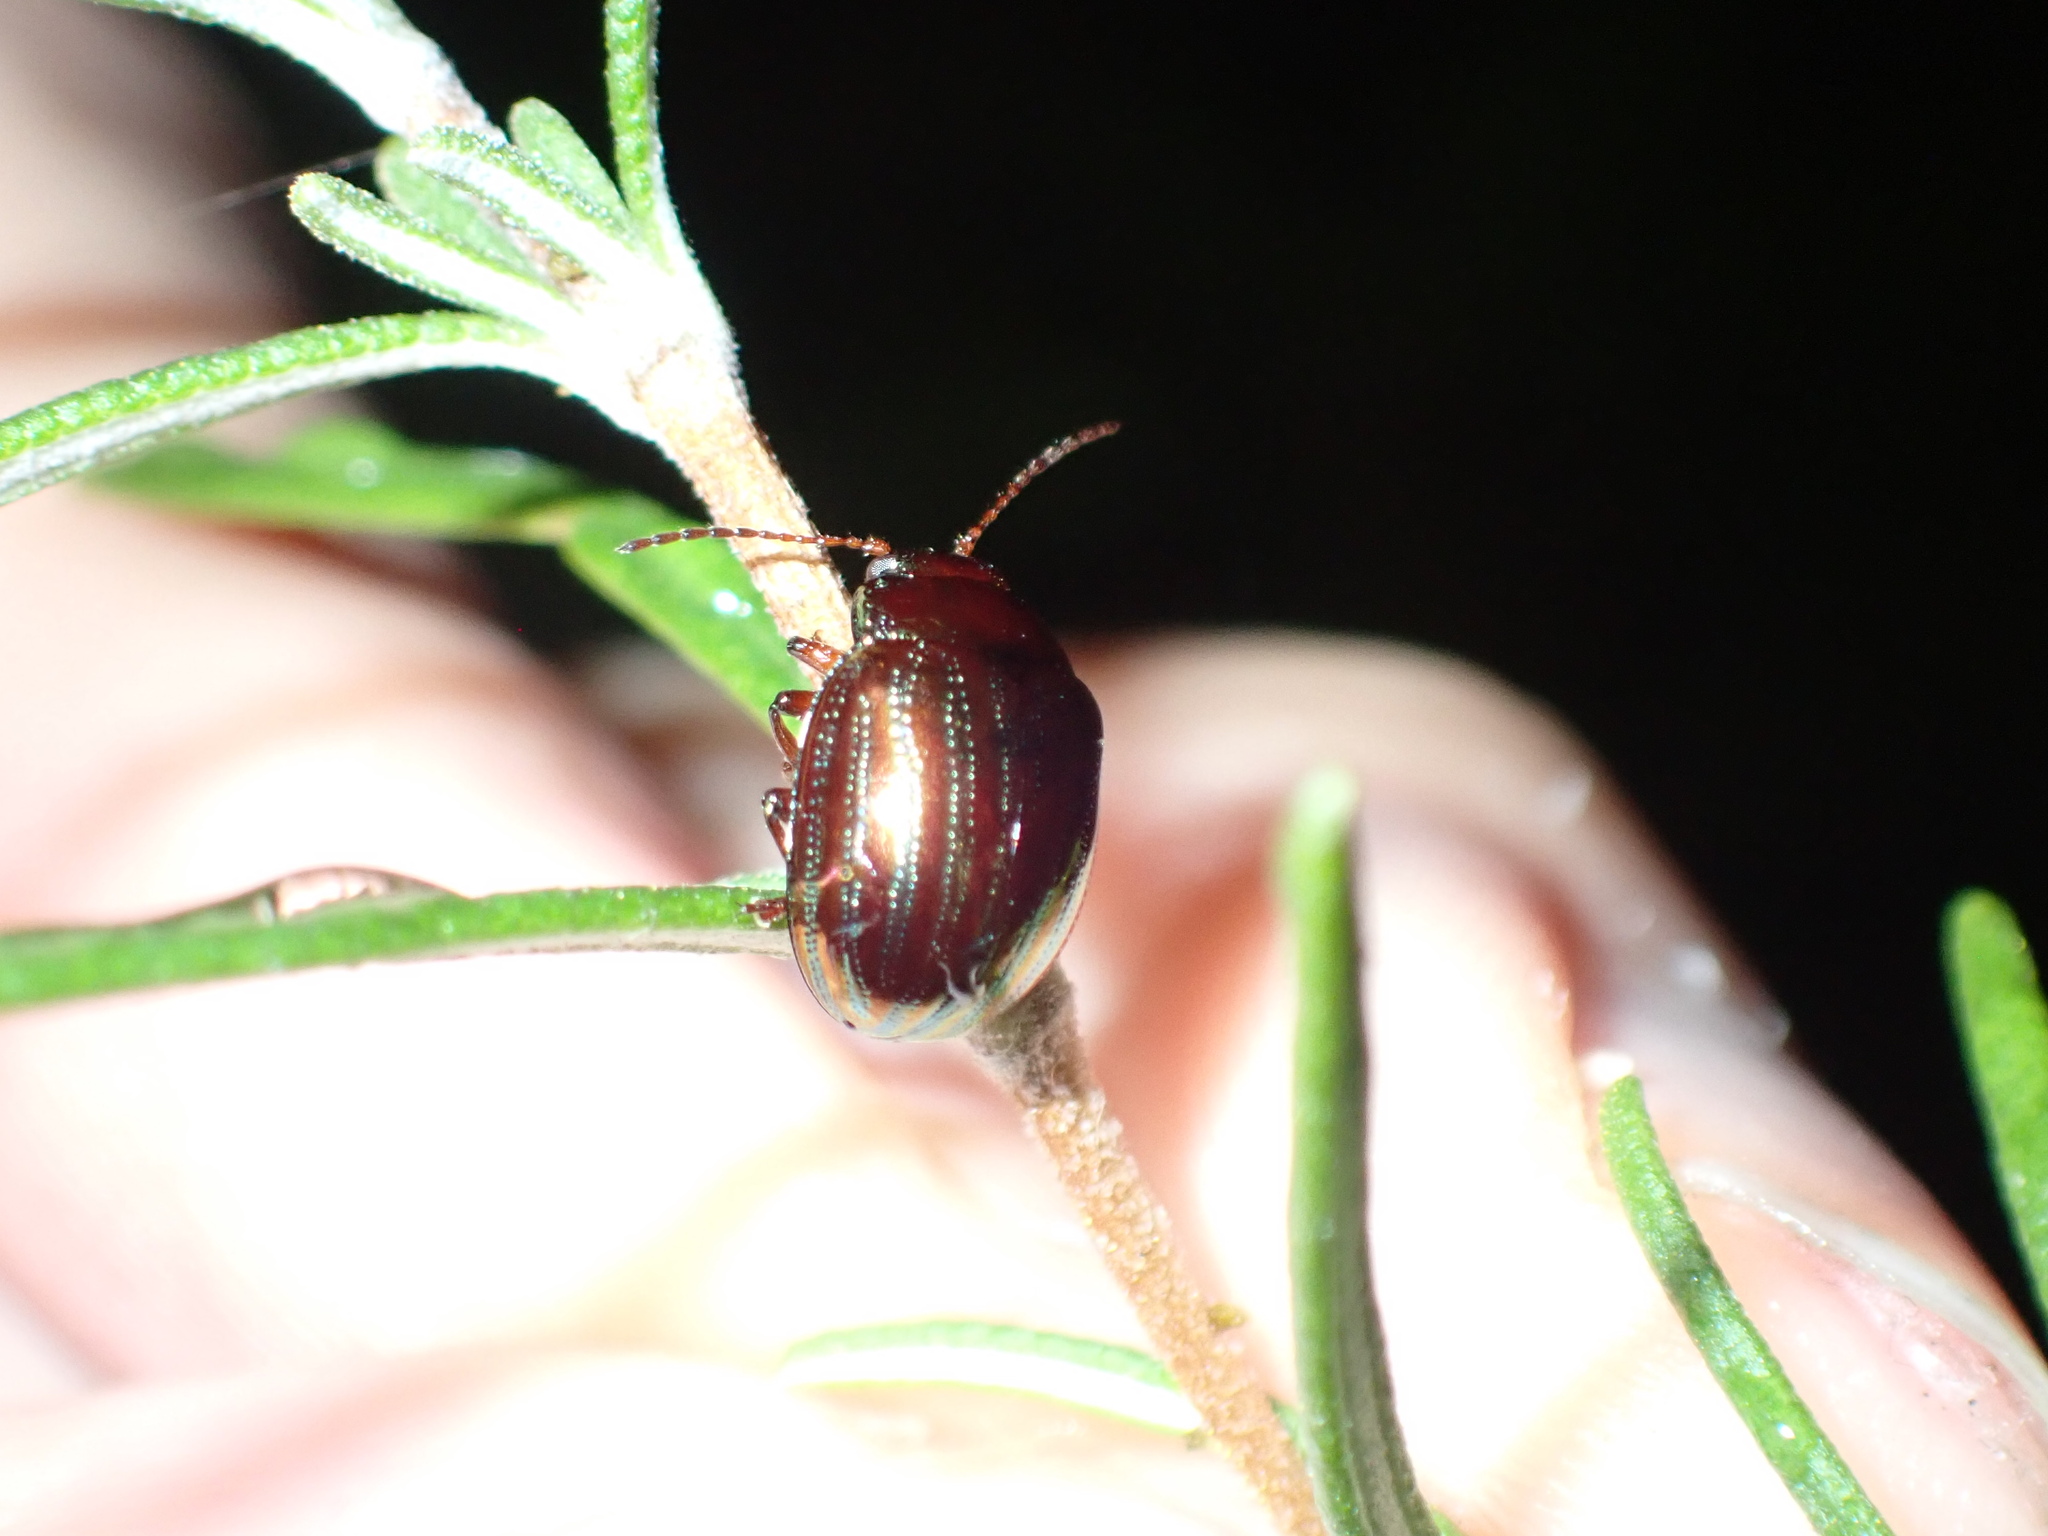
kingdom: Animalia
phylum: Arthropoda
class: Insecta
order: Coleoptera
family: Chrysomelidae
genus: Chrysolina
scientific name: Chrysolina americana
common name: Rosemary beetle
